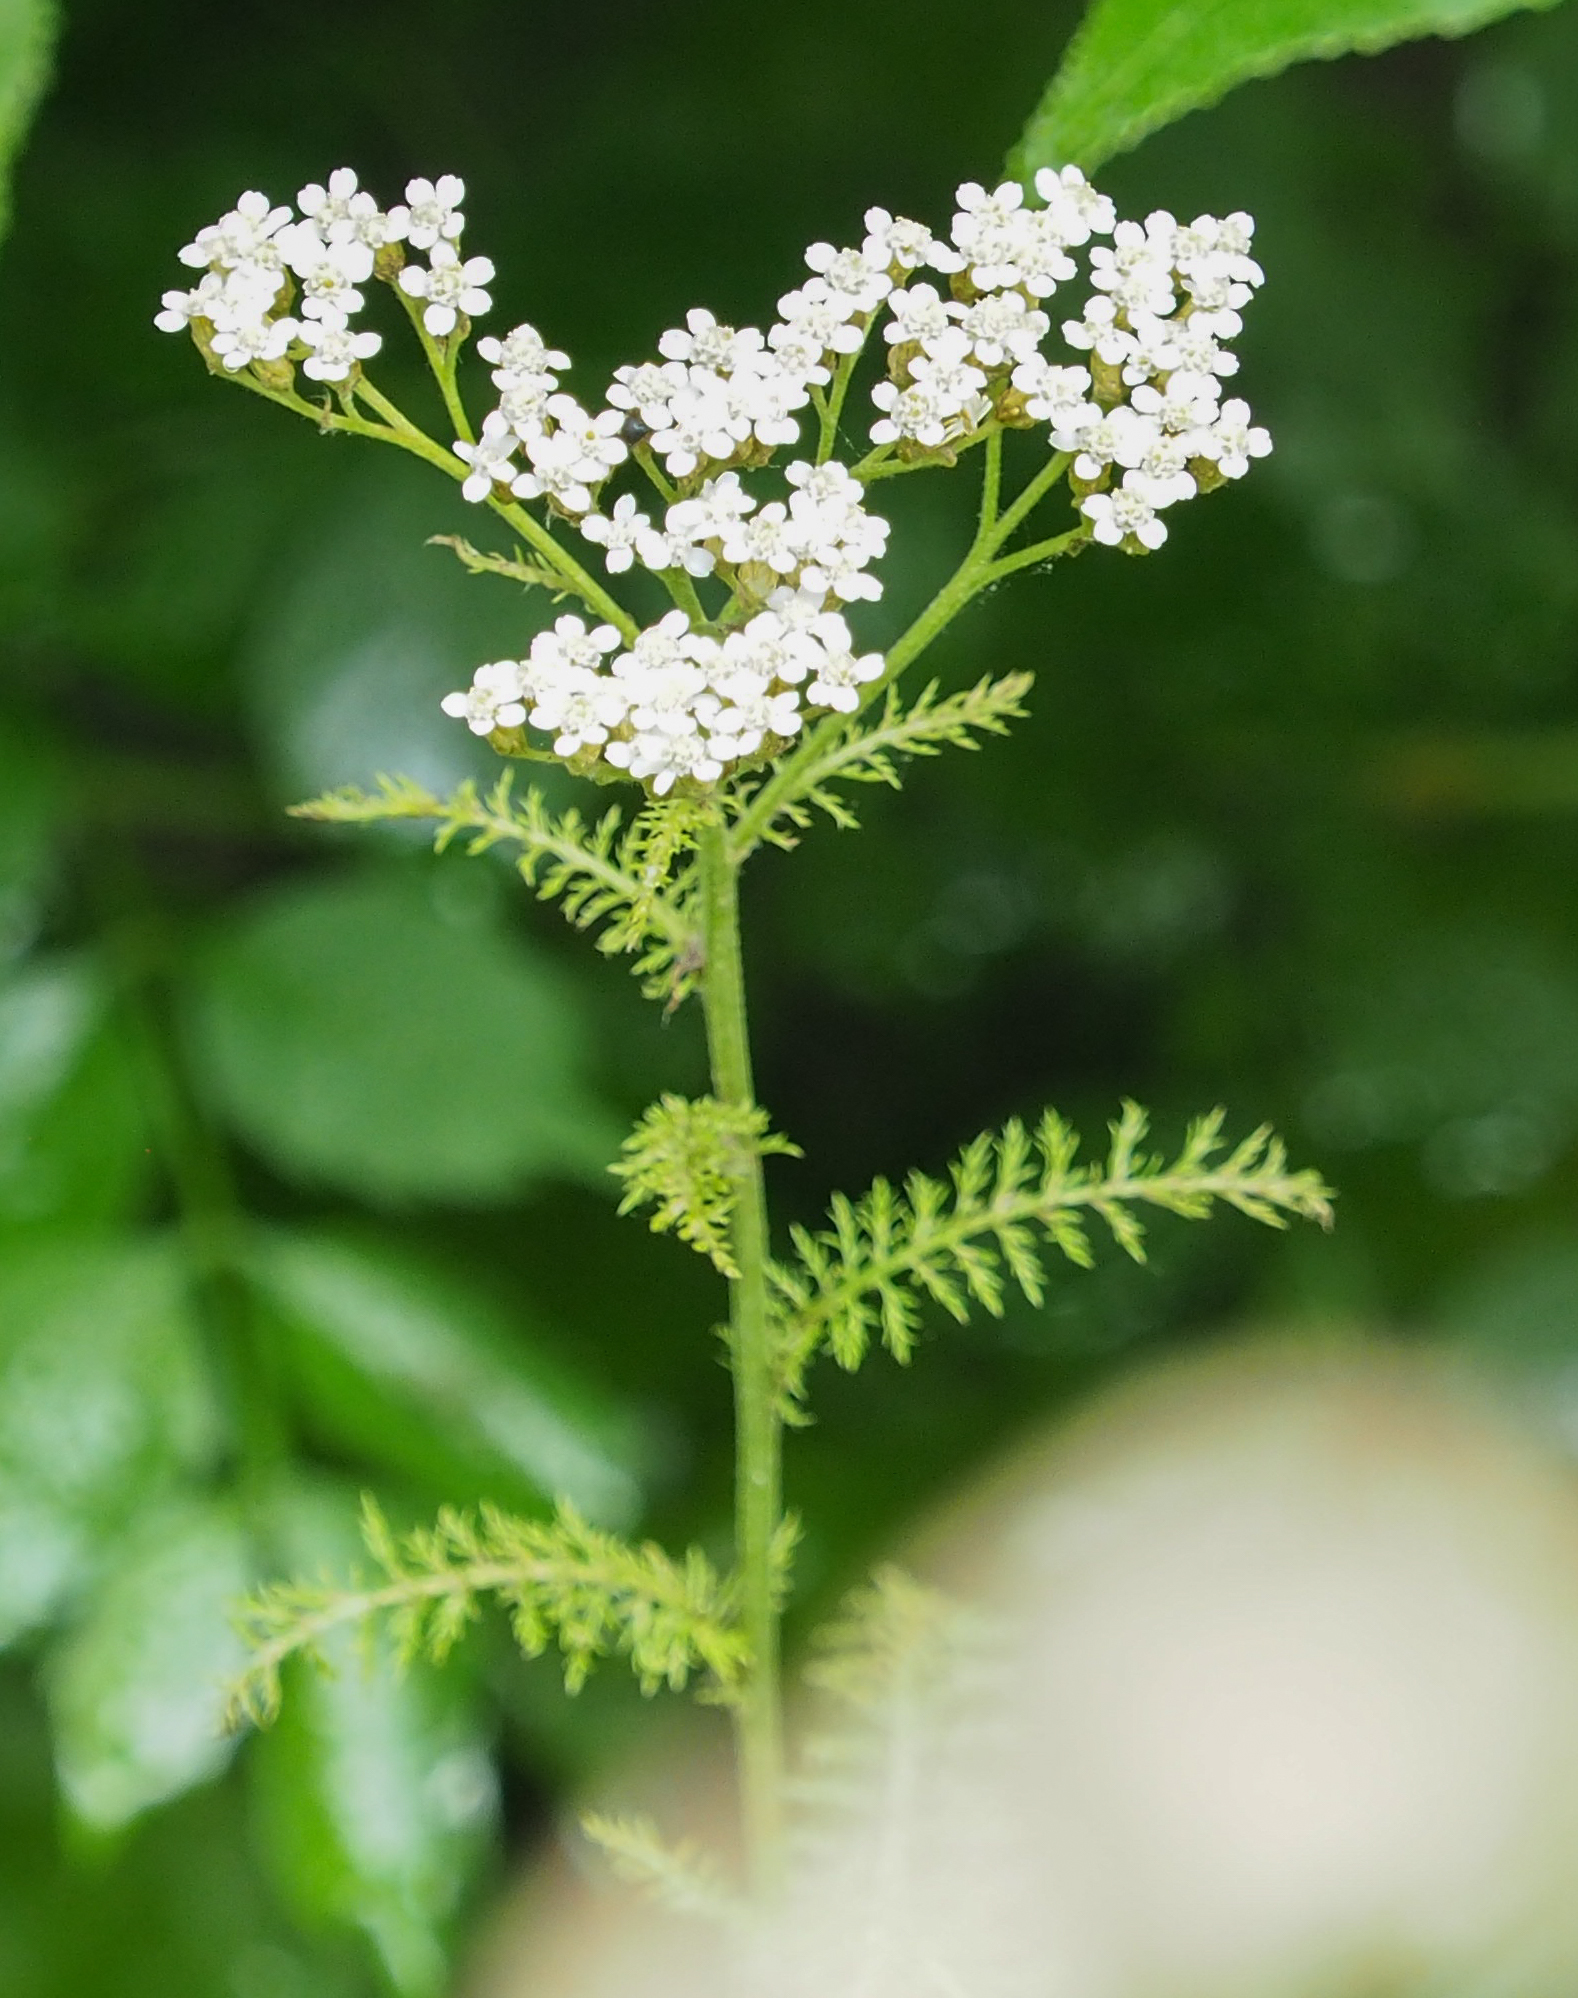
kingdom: Plantae
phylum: Tracheophyta
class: Magnoliopsida
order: Asterales
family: Asteraceae
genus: Achillea
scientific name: Achillea millefolium
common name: Yarrow
